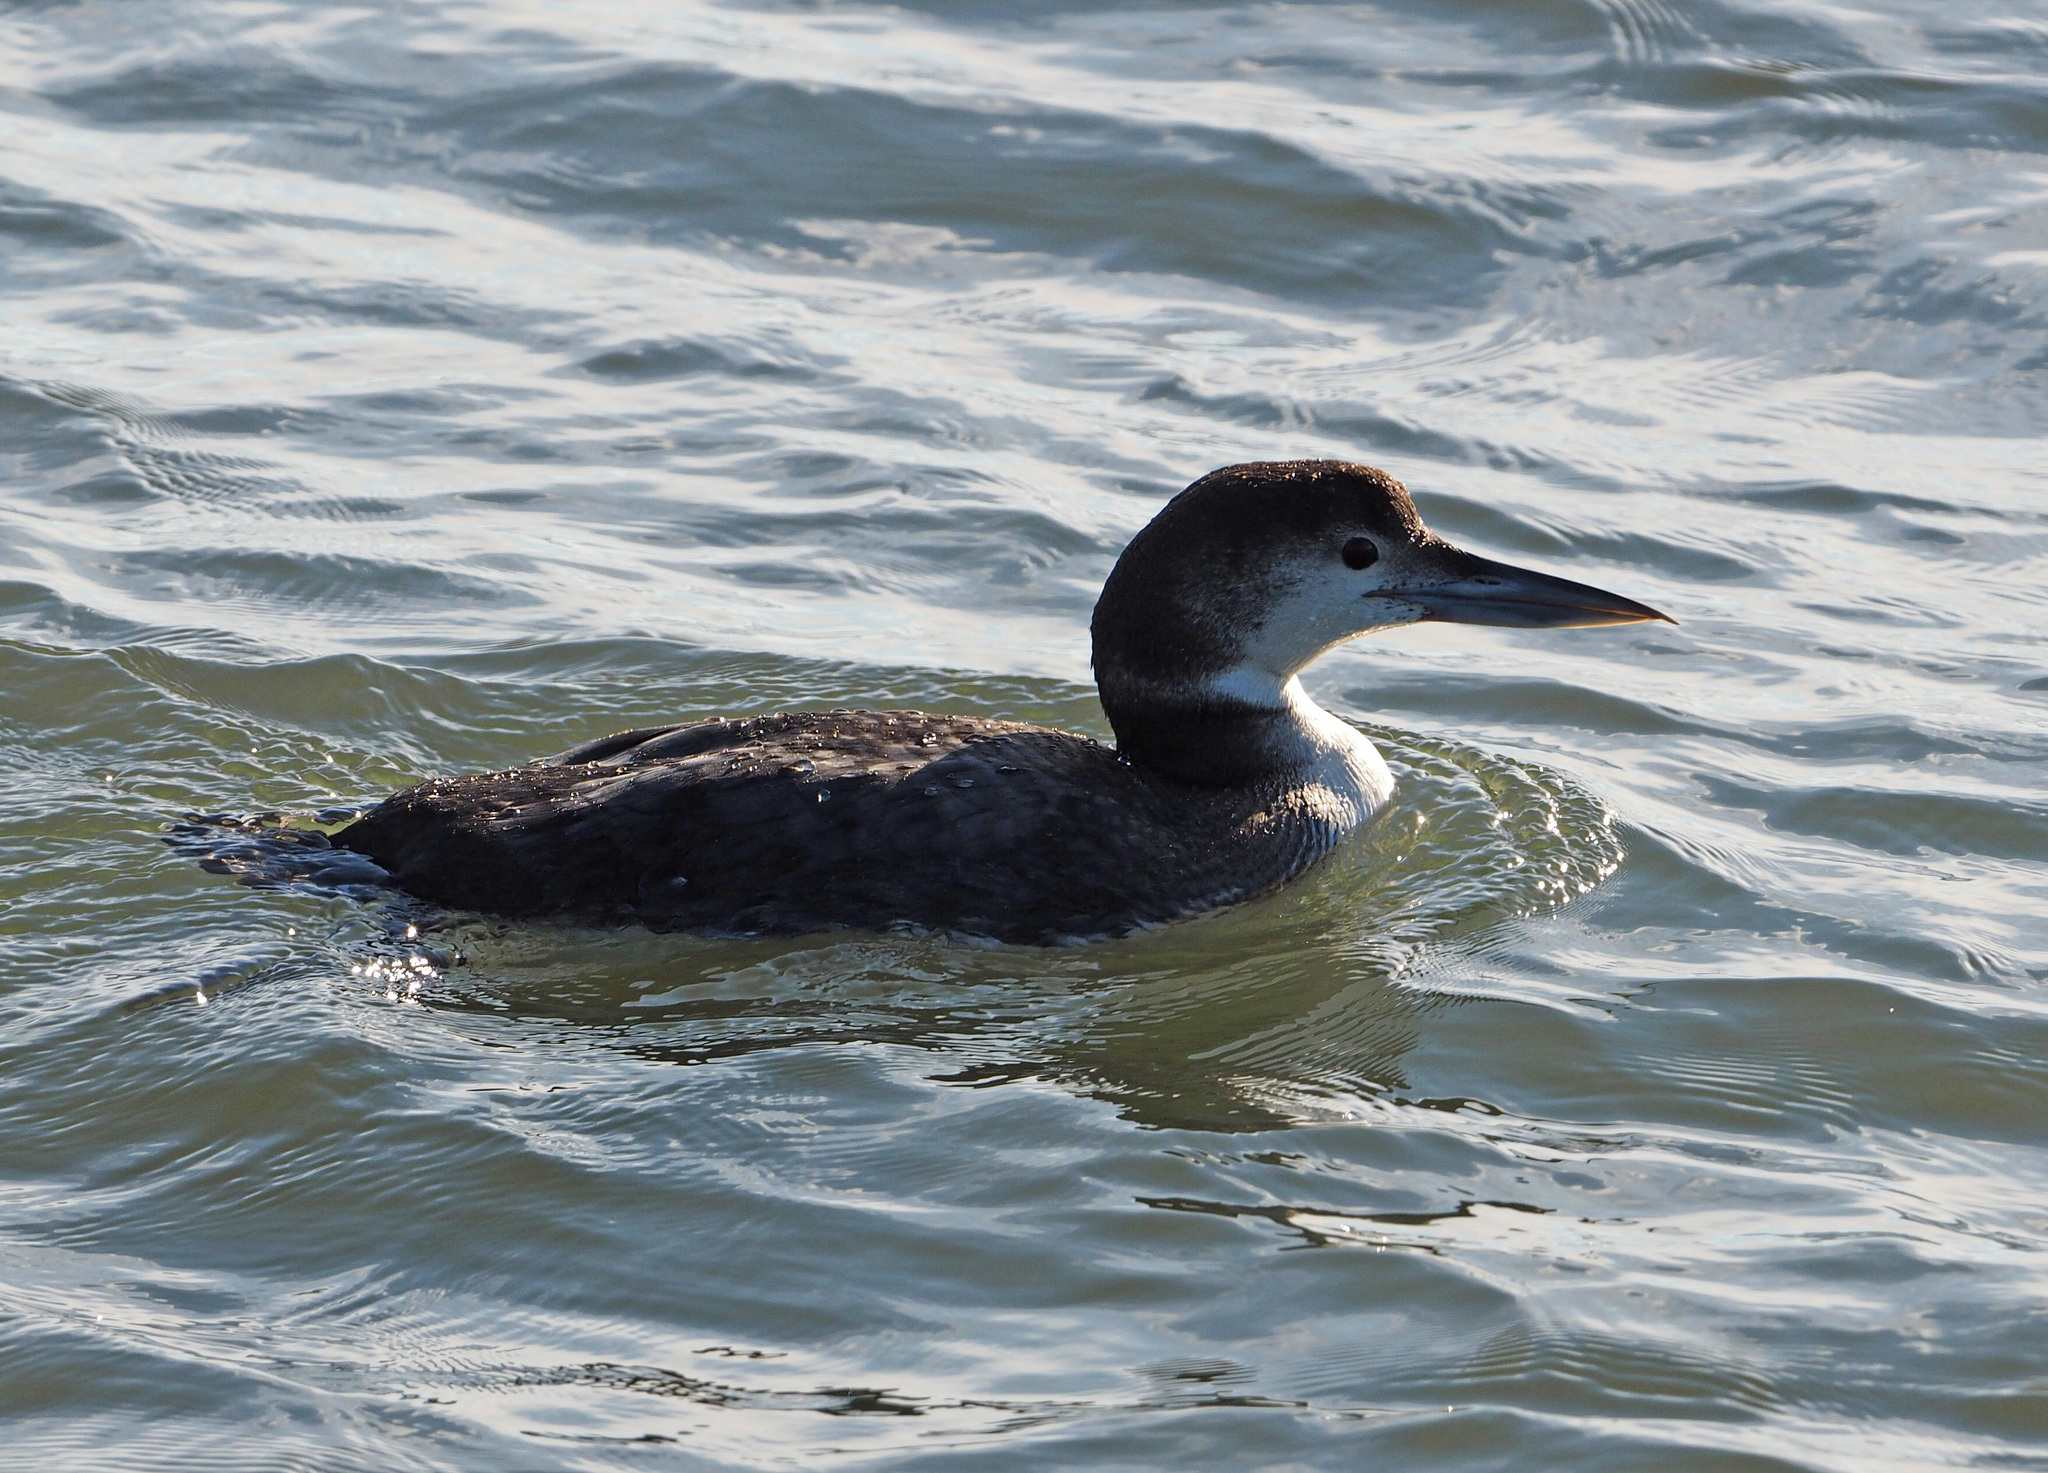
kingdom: Animalia
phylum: Chordata
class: Aves
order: Gaviiformes
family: Gaviidae
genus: Gavia
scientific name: Gavia immer
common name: Common loon
